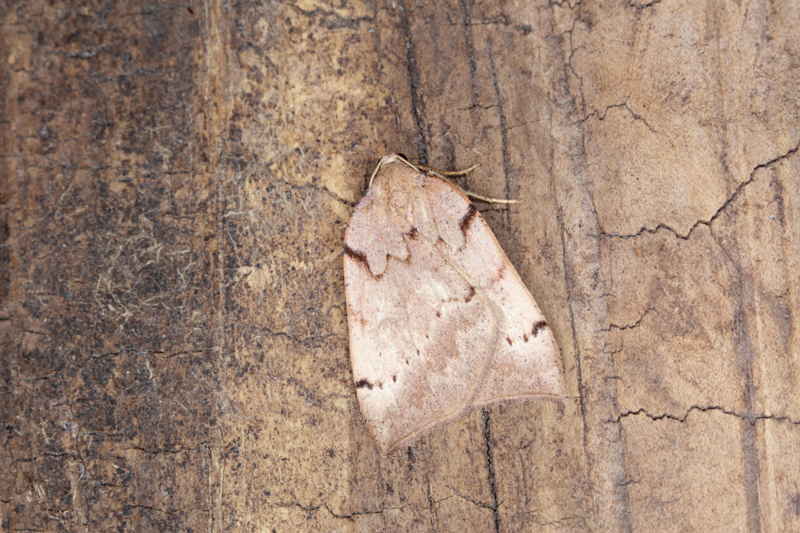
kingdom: Animalia
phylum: Arthropoda
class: Insecta
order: Lepidoptera
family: Geometridae
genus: Sestra
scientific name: Sestra humeraria
